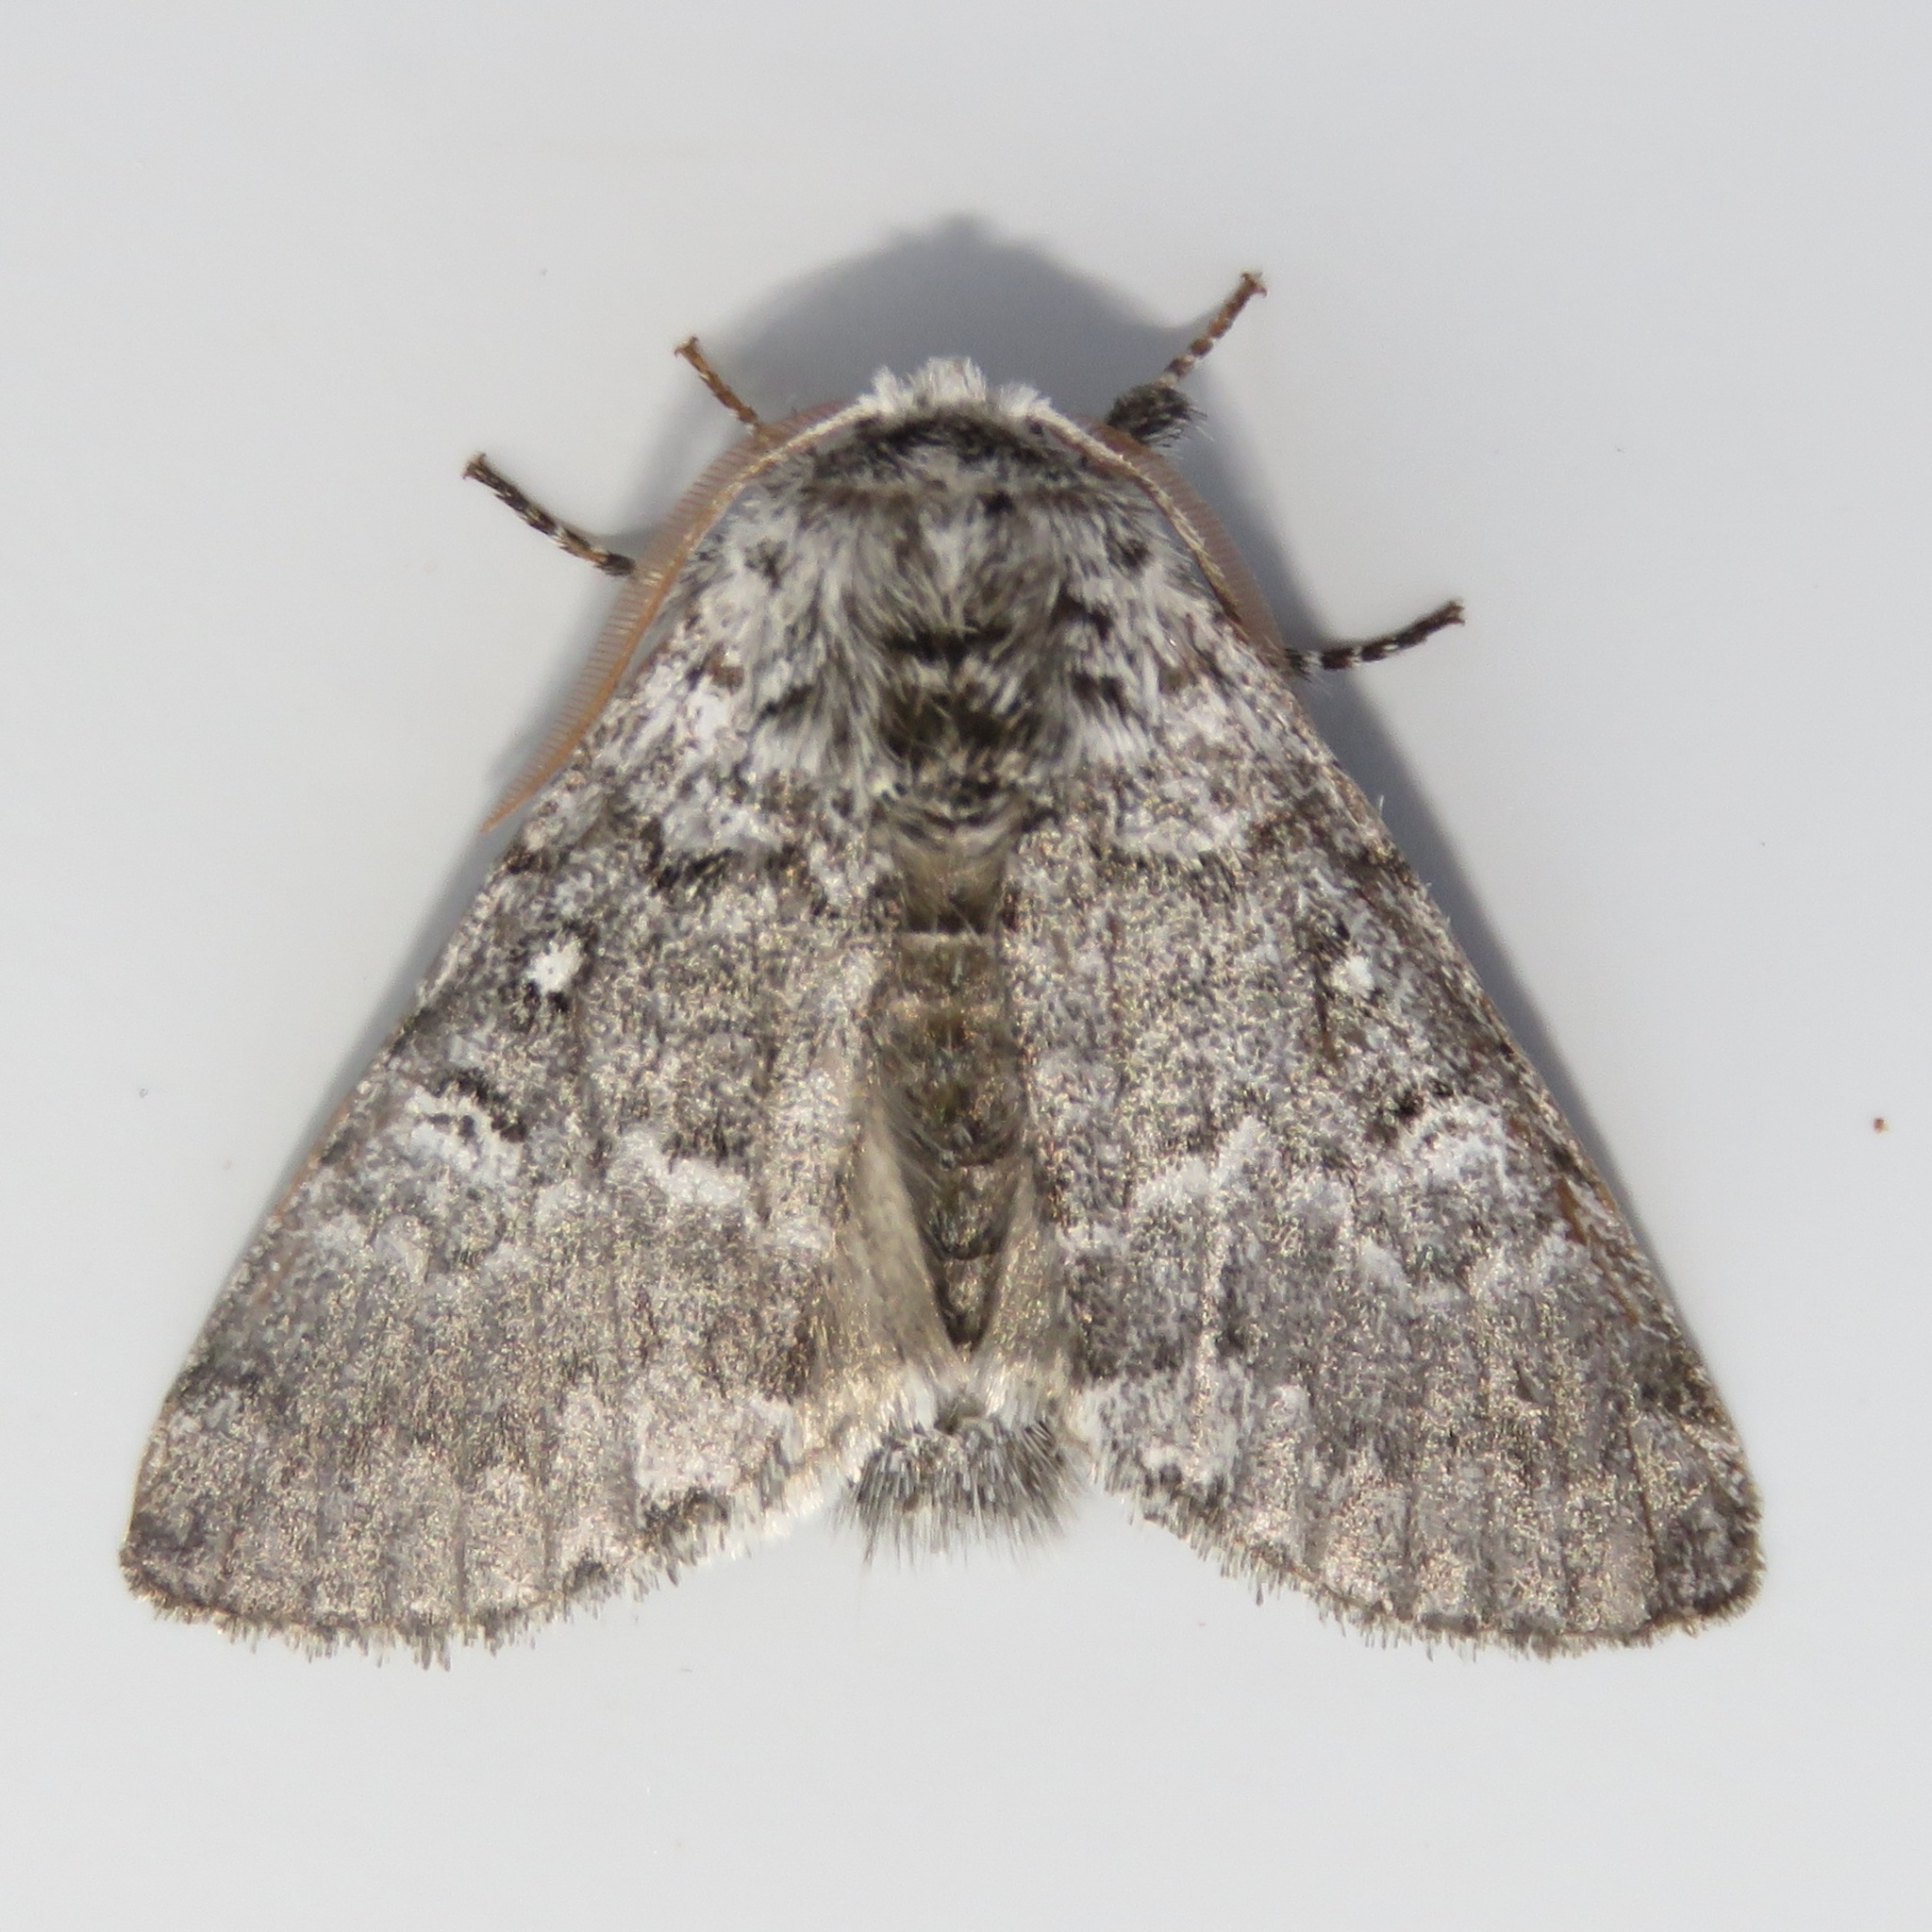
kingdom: Animalia
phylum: Arthropoda
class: Insecta
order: Lepidoptera
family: Noctuidae
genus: Colocasia
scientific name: Colocasia propinquilinea
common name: Close-banded demas
